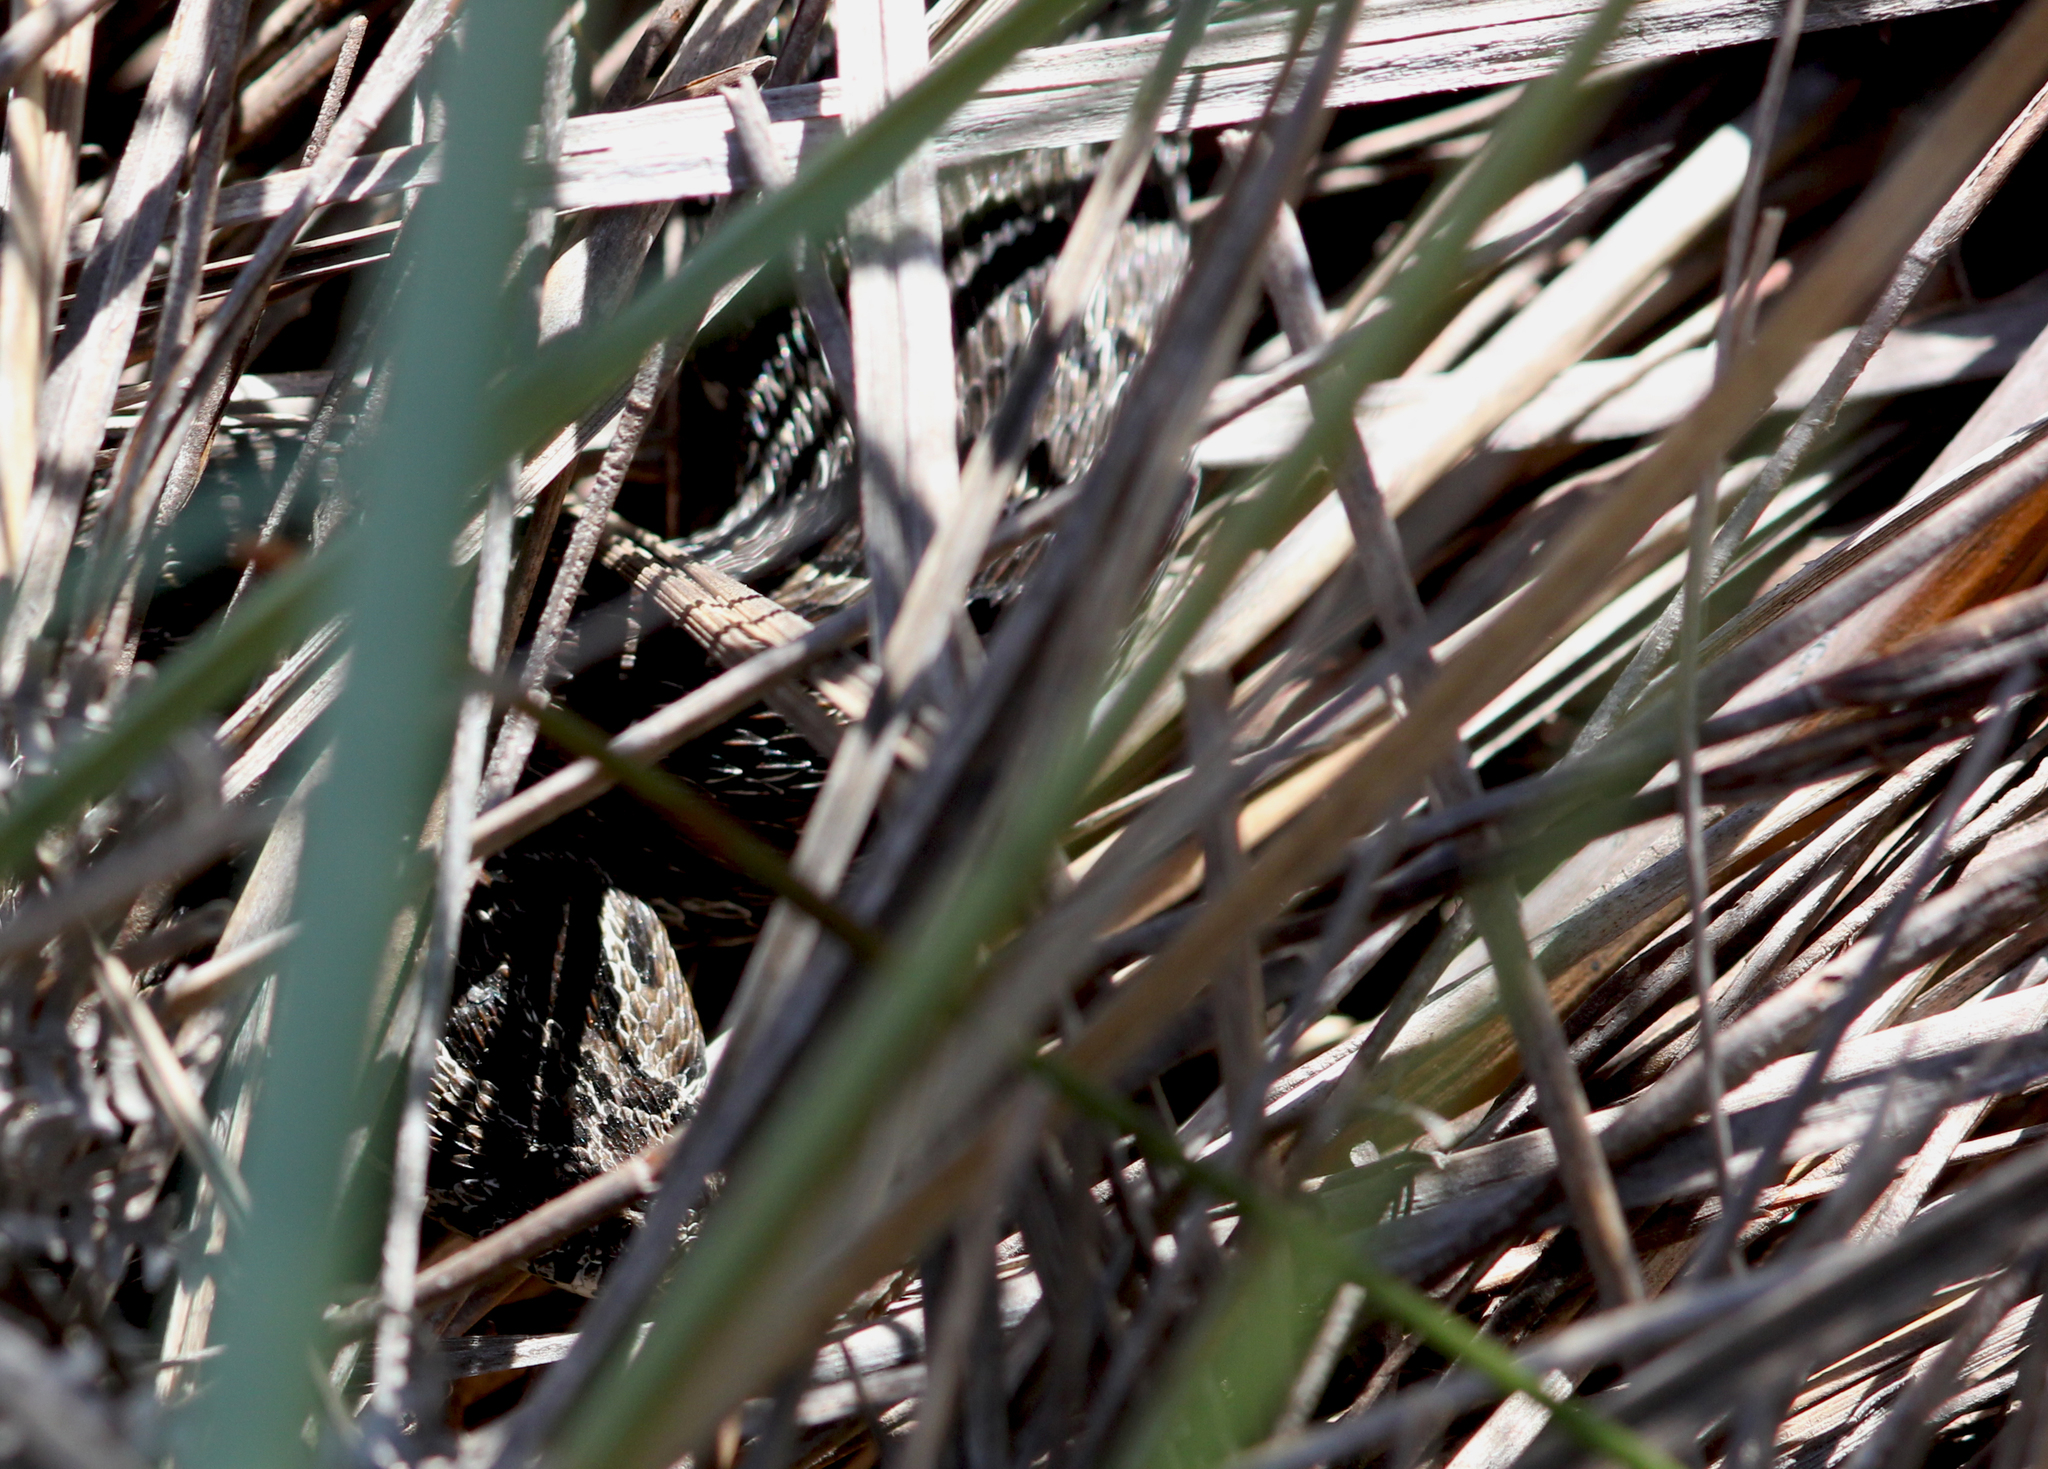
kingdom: Animalia
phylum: Chordata
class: Squamata
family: Viperidae
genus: Bitis
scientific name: Bitis atropos
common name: Mountain adder
